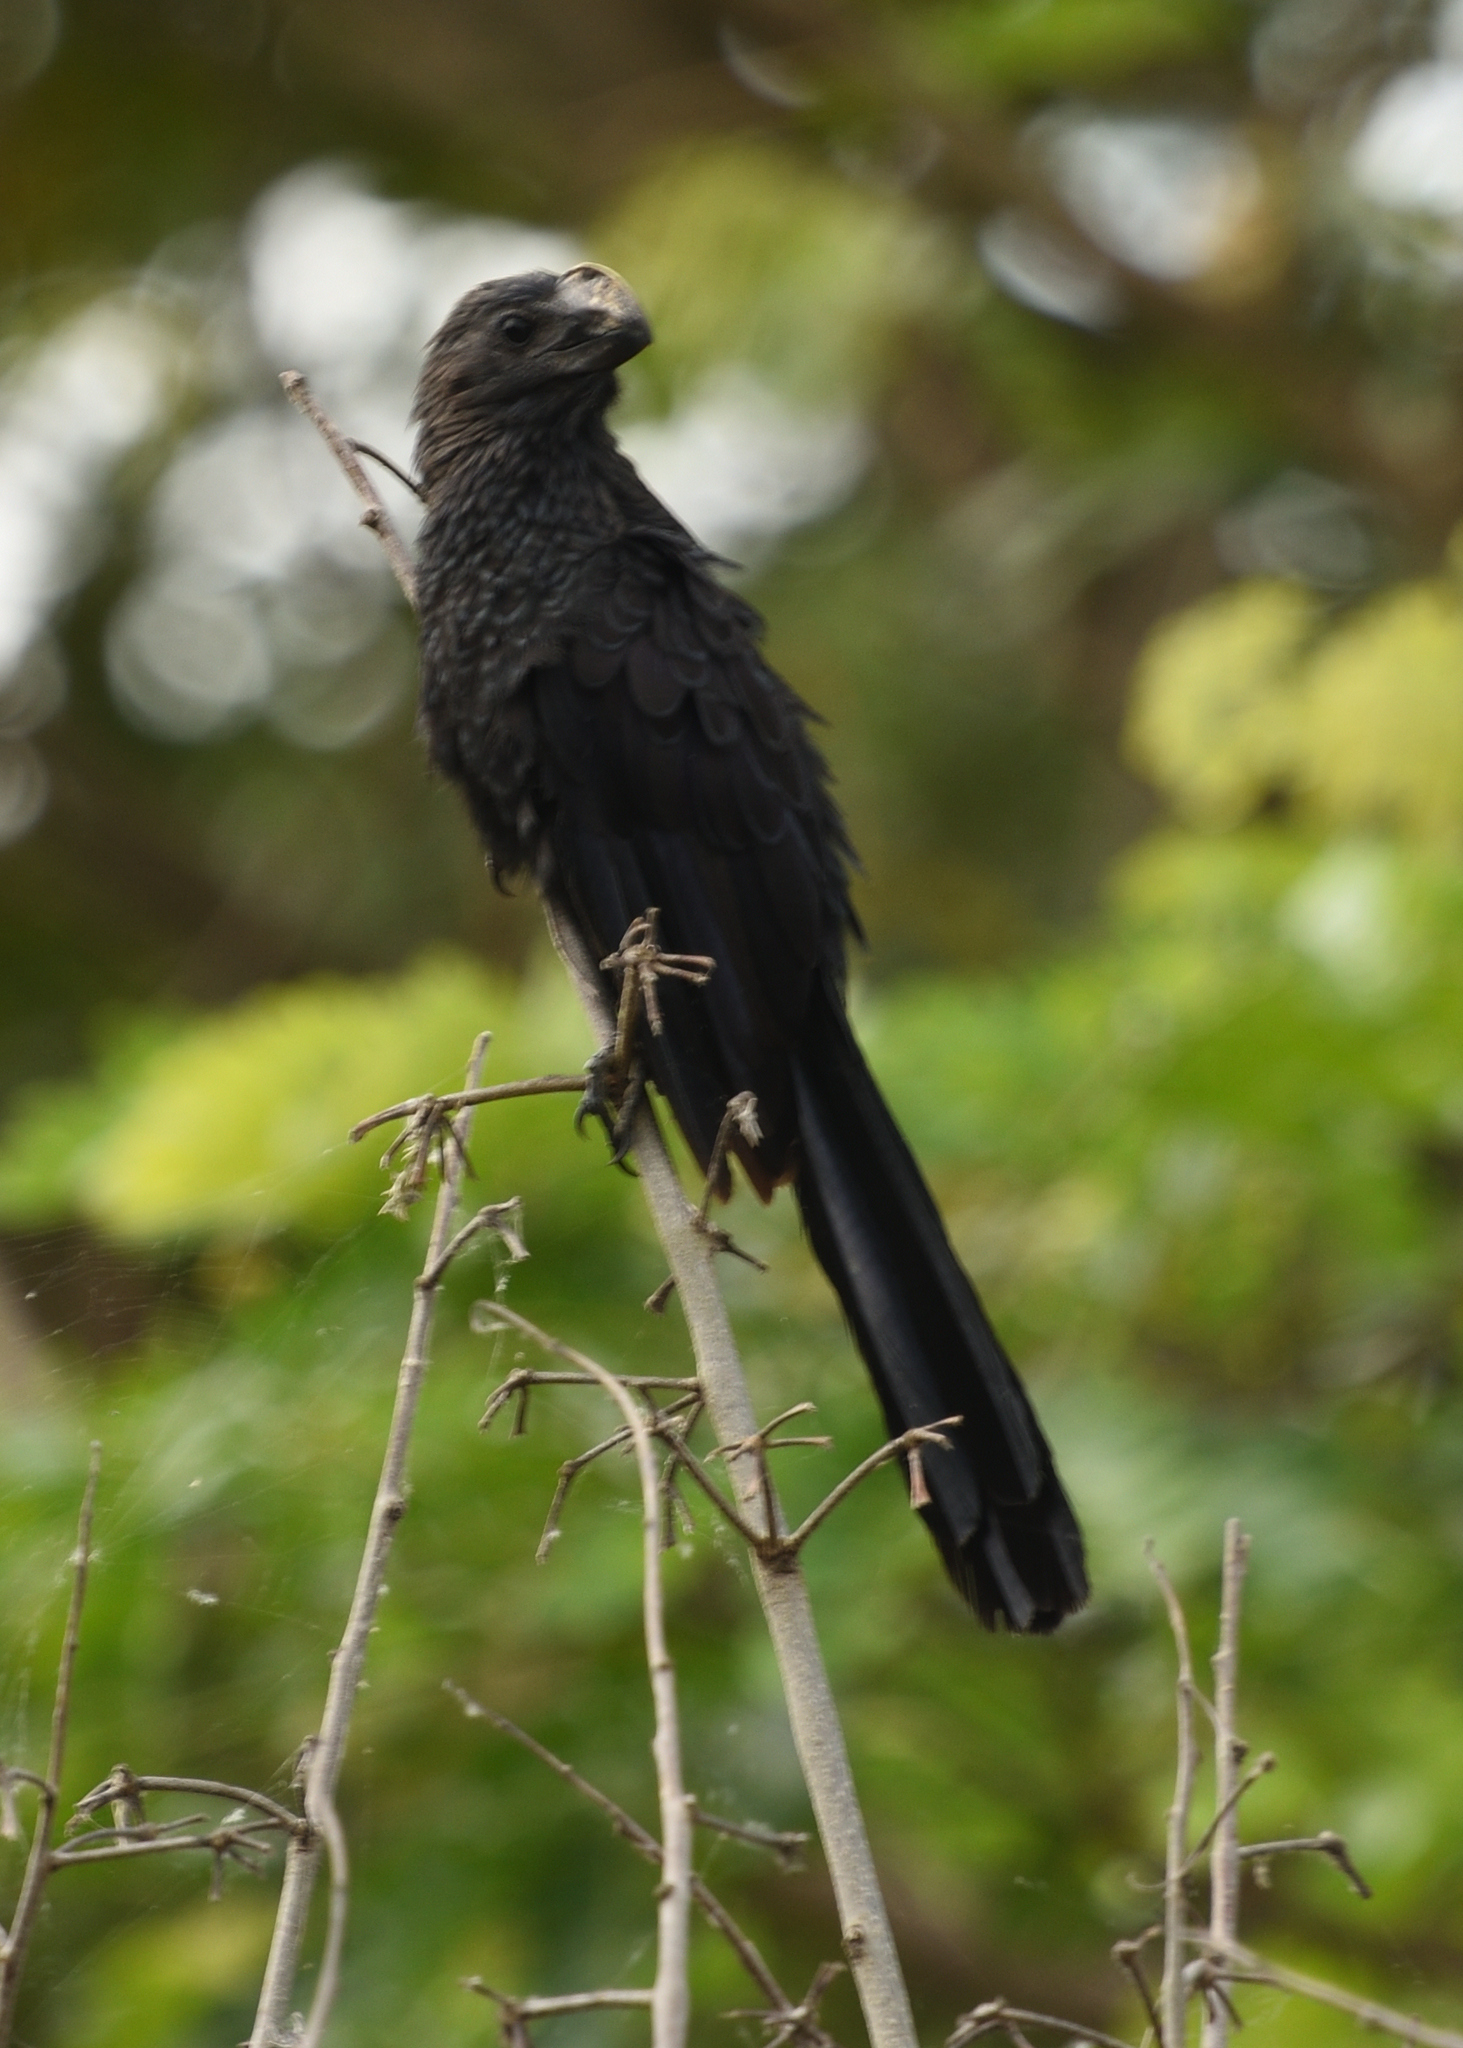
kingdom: Animalia
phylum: Chordata
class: Aves
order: Cuculiformes
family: Cuculidae
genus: Crotophaga
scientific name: Crotophaga ani
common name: Smooth-billed ani
